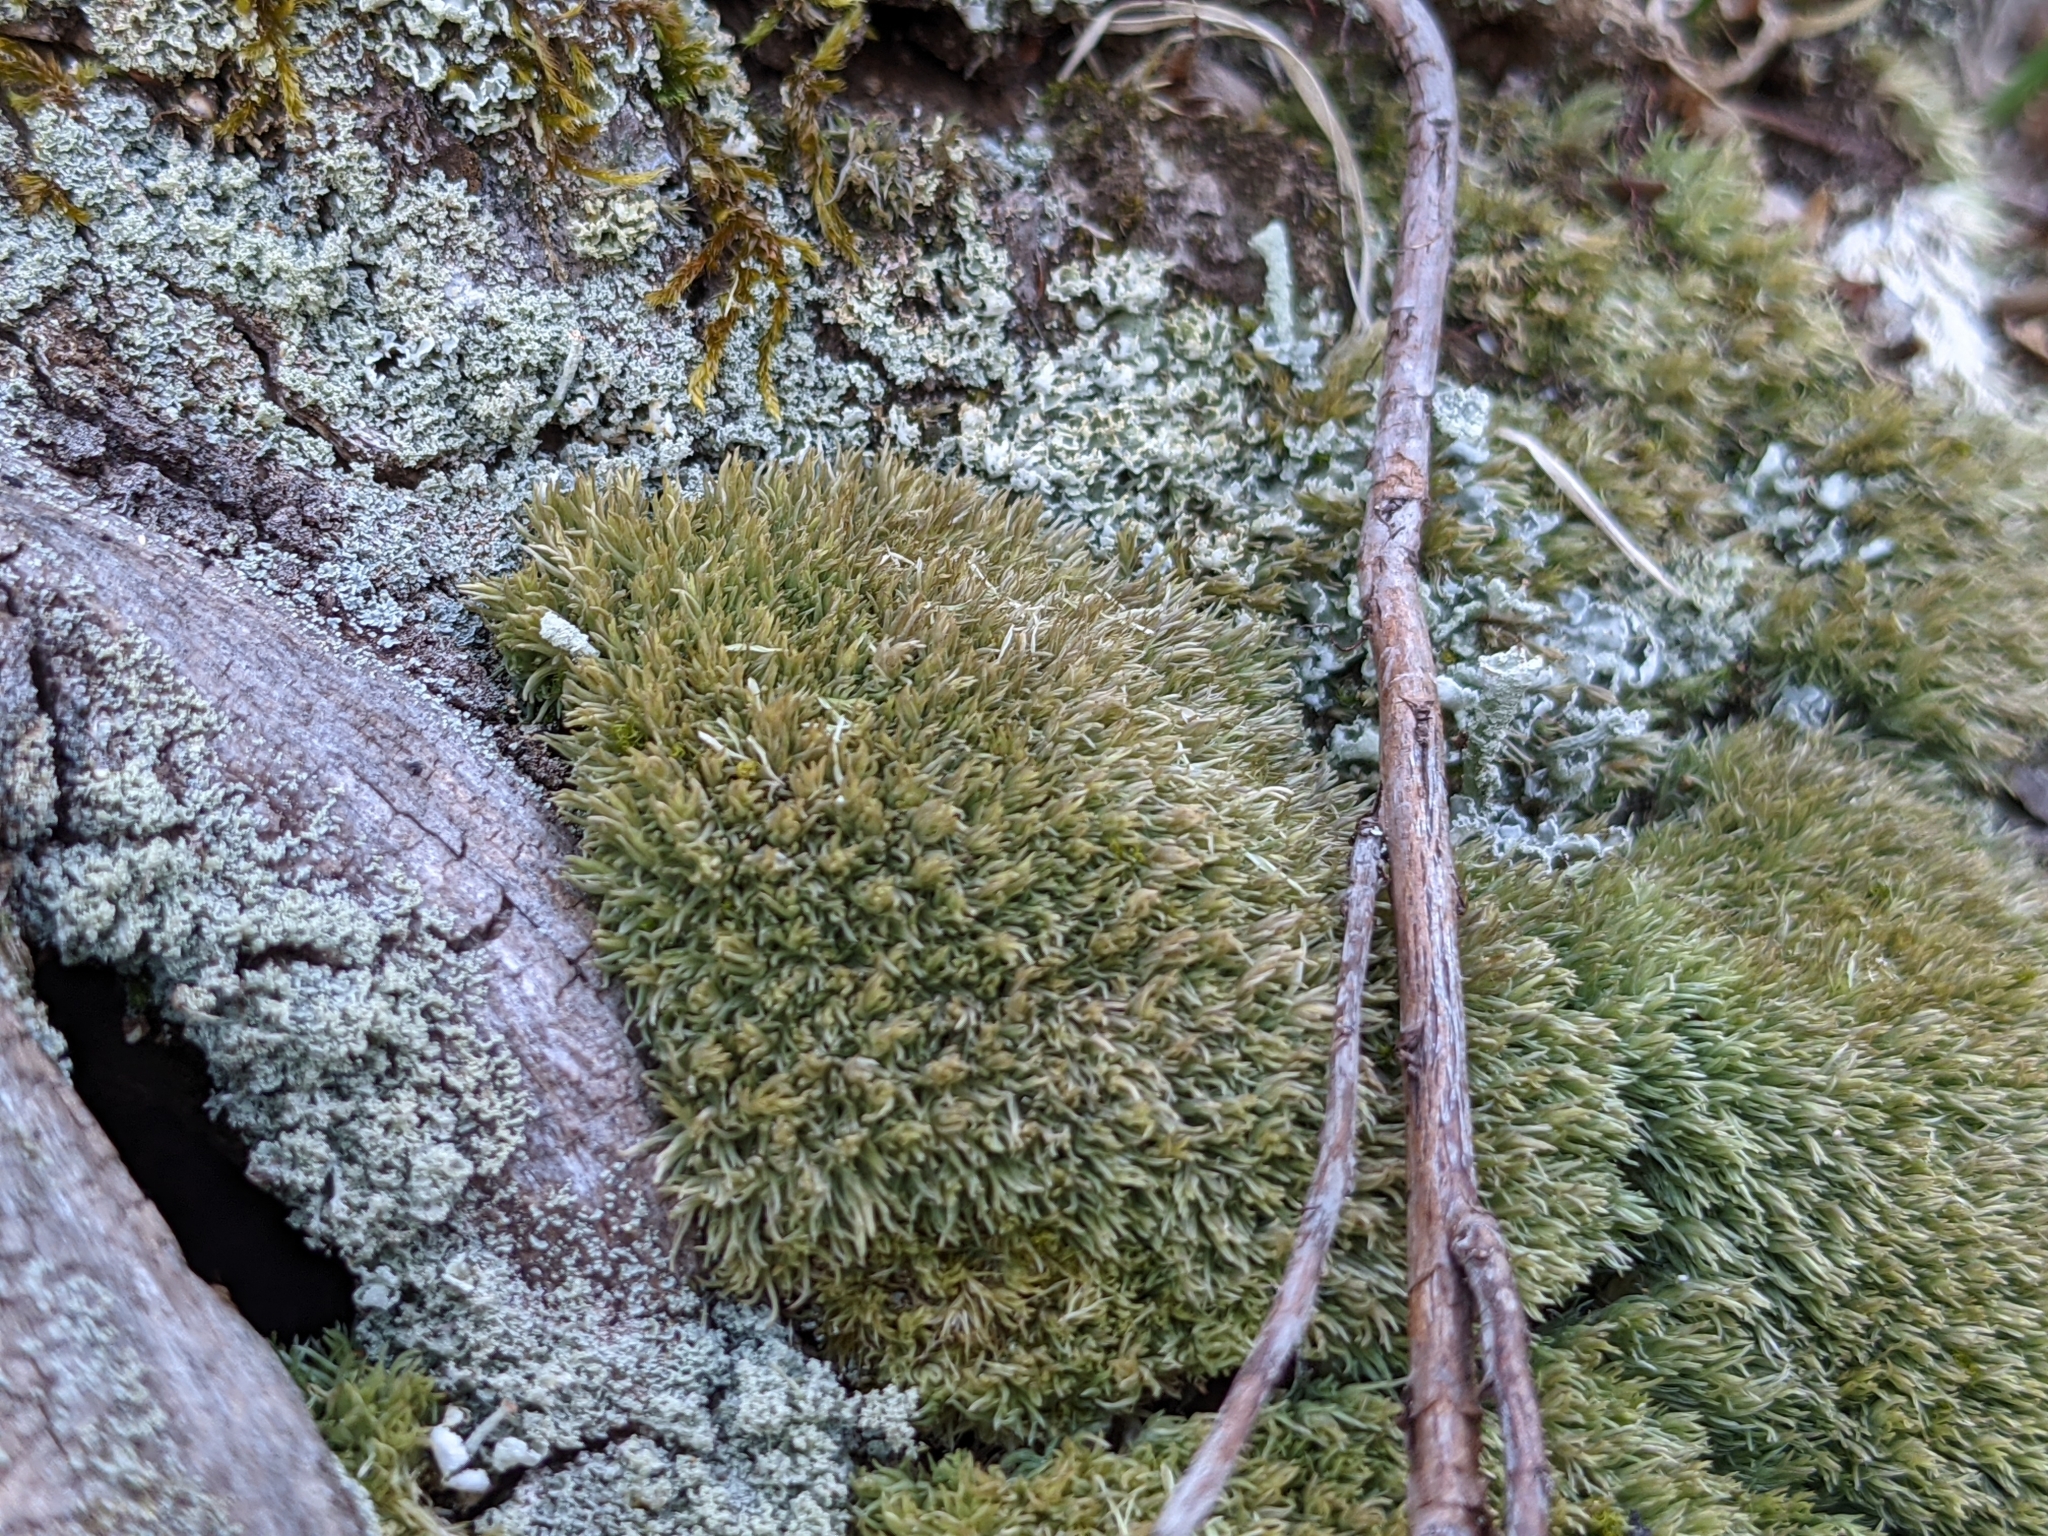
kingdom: Plantae
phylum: Bryophyta
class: Bryopsida
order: Dicranales
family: Leucobryaceae
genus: Leucobryum
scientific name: Leucobryum glaucum
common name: Large white-moss
